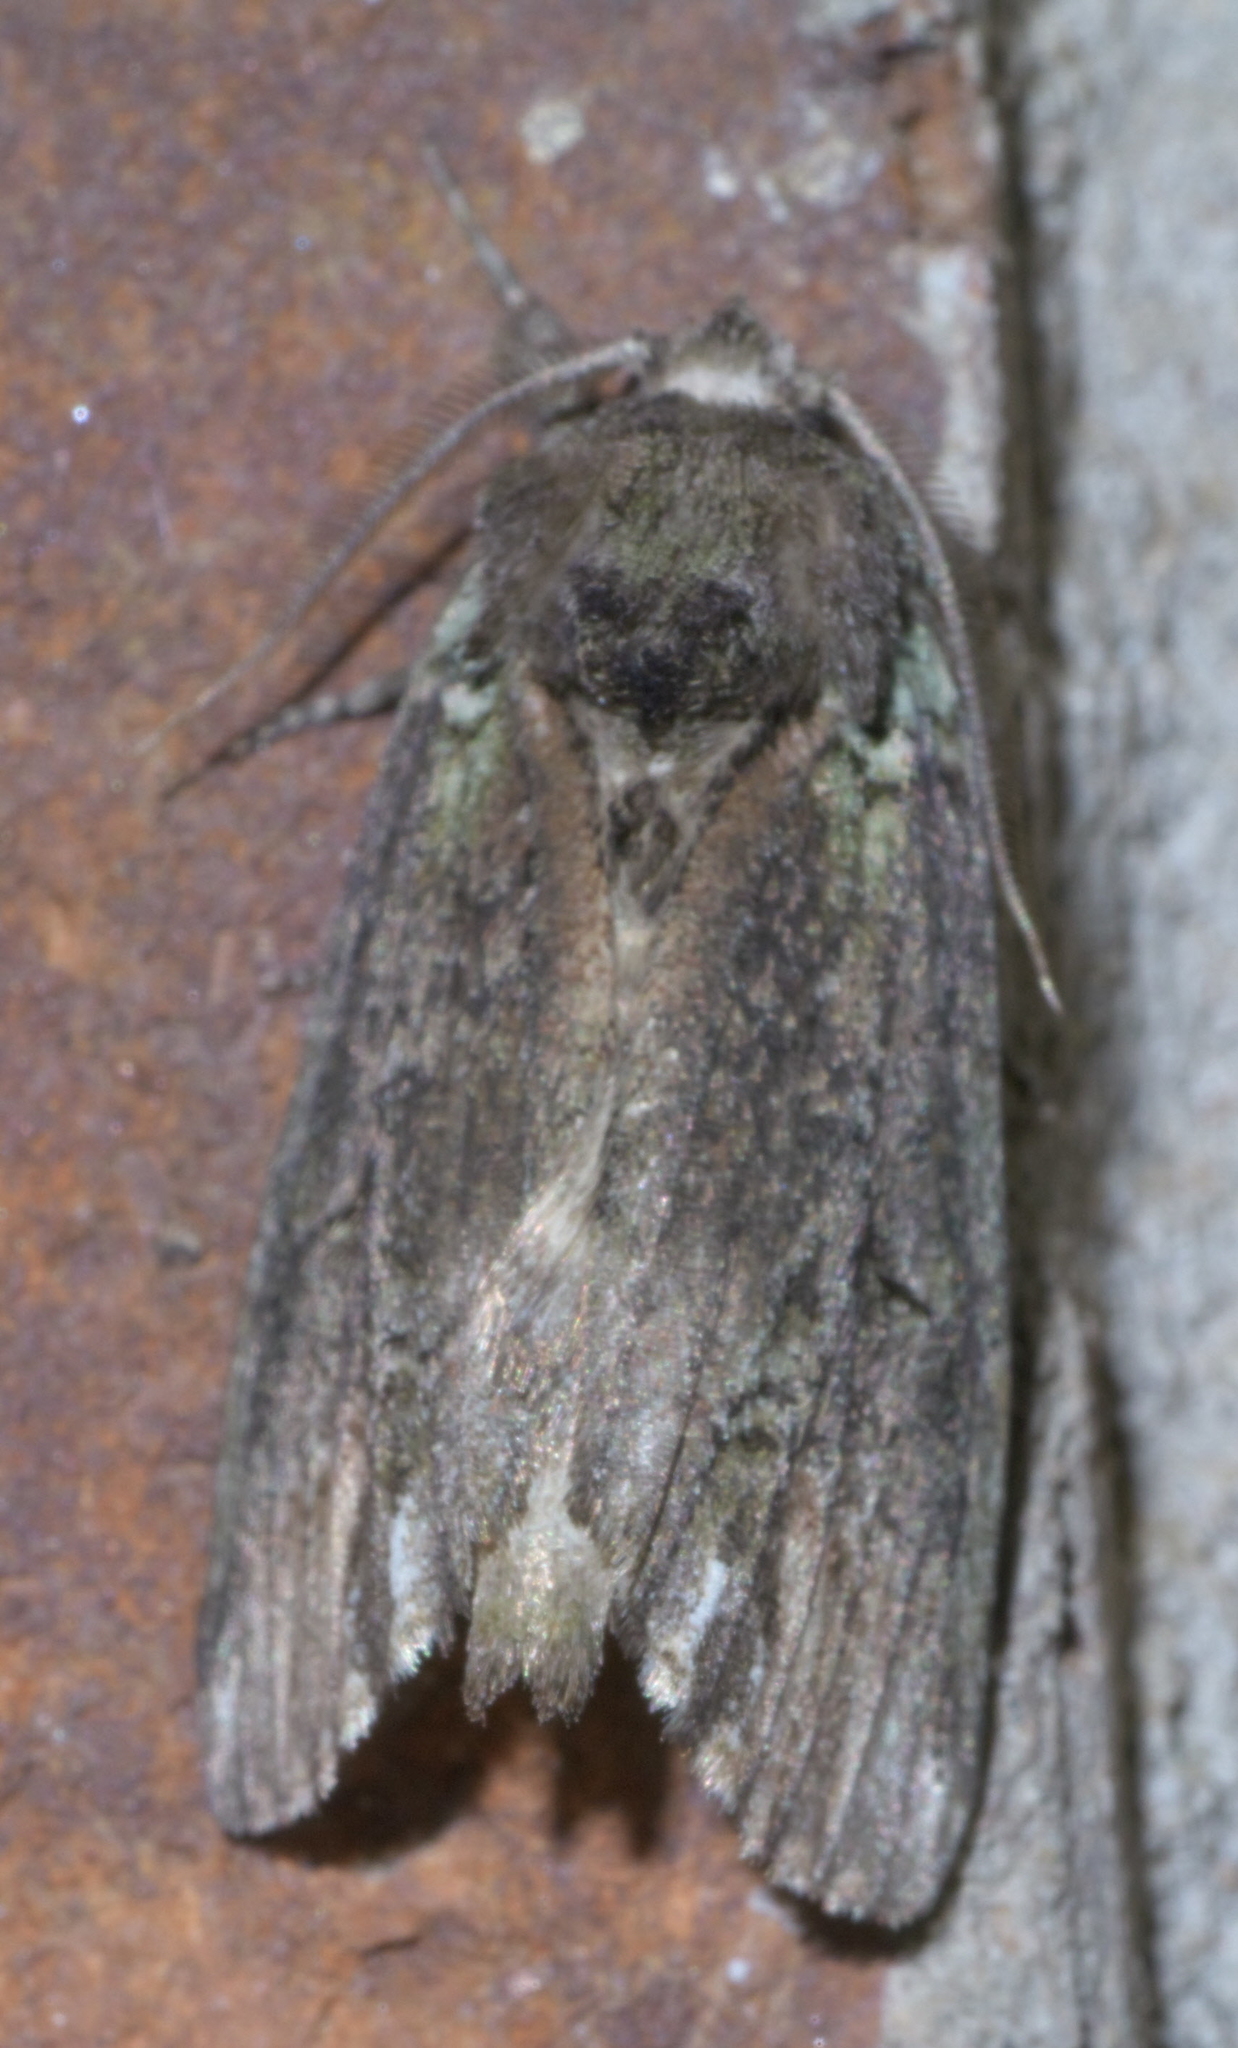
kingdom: Animalia
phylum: Arthropoda
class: Insecta
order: Lepidoptera
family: Notodontidae
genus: Schizura
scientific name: Schizura
